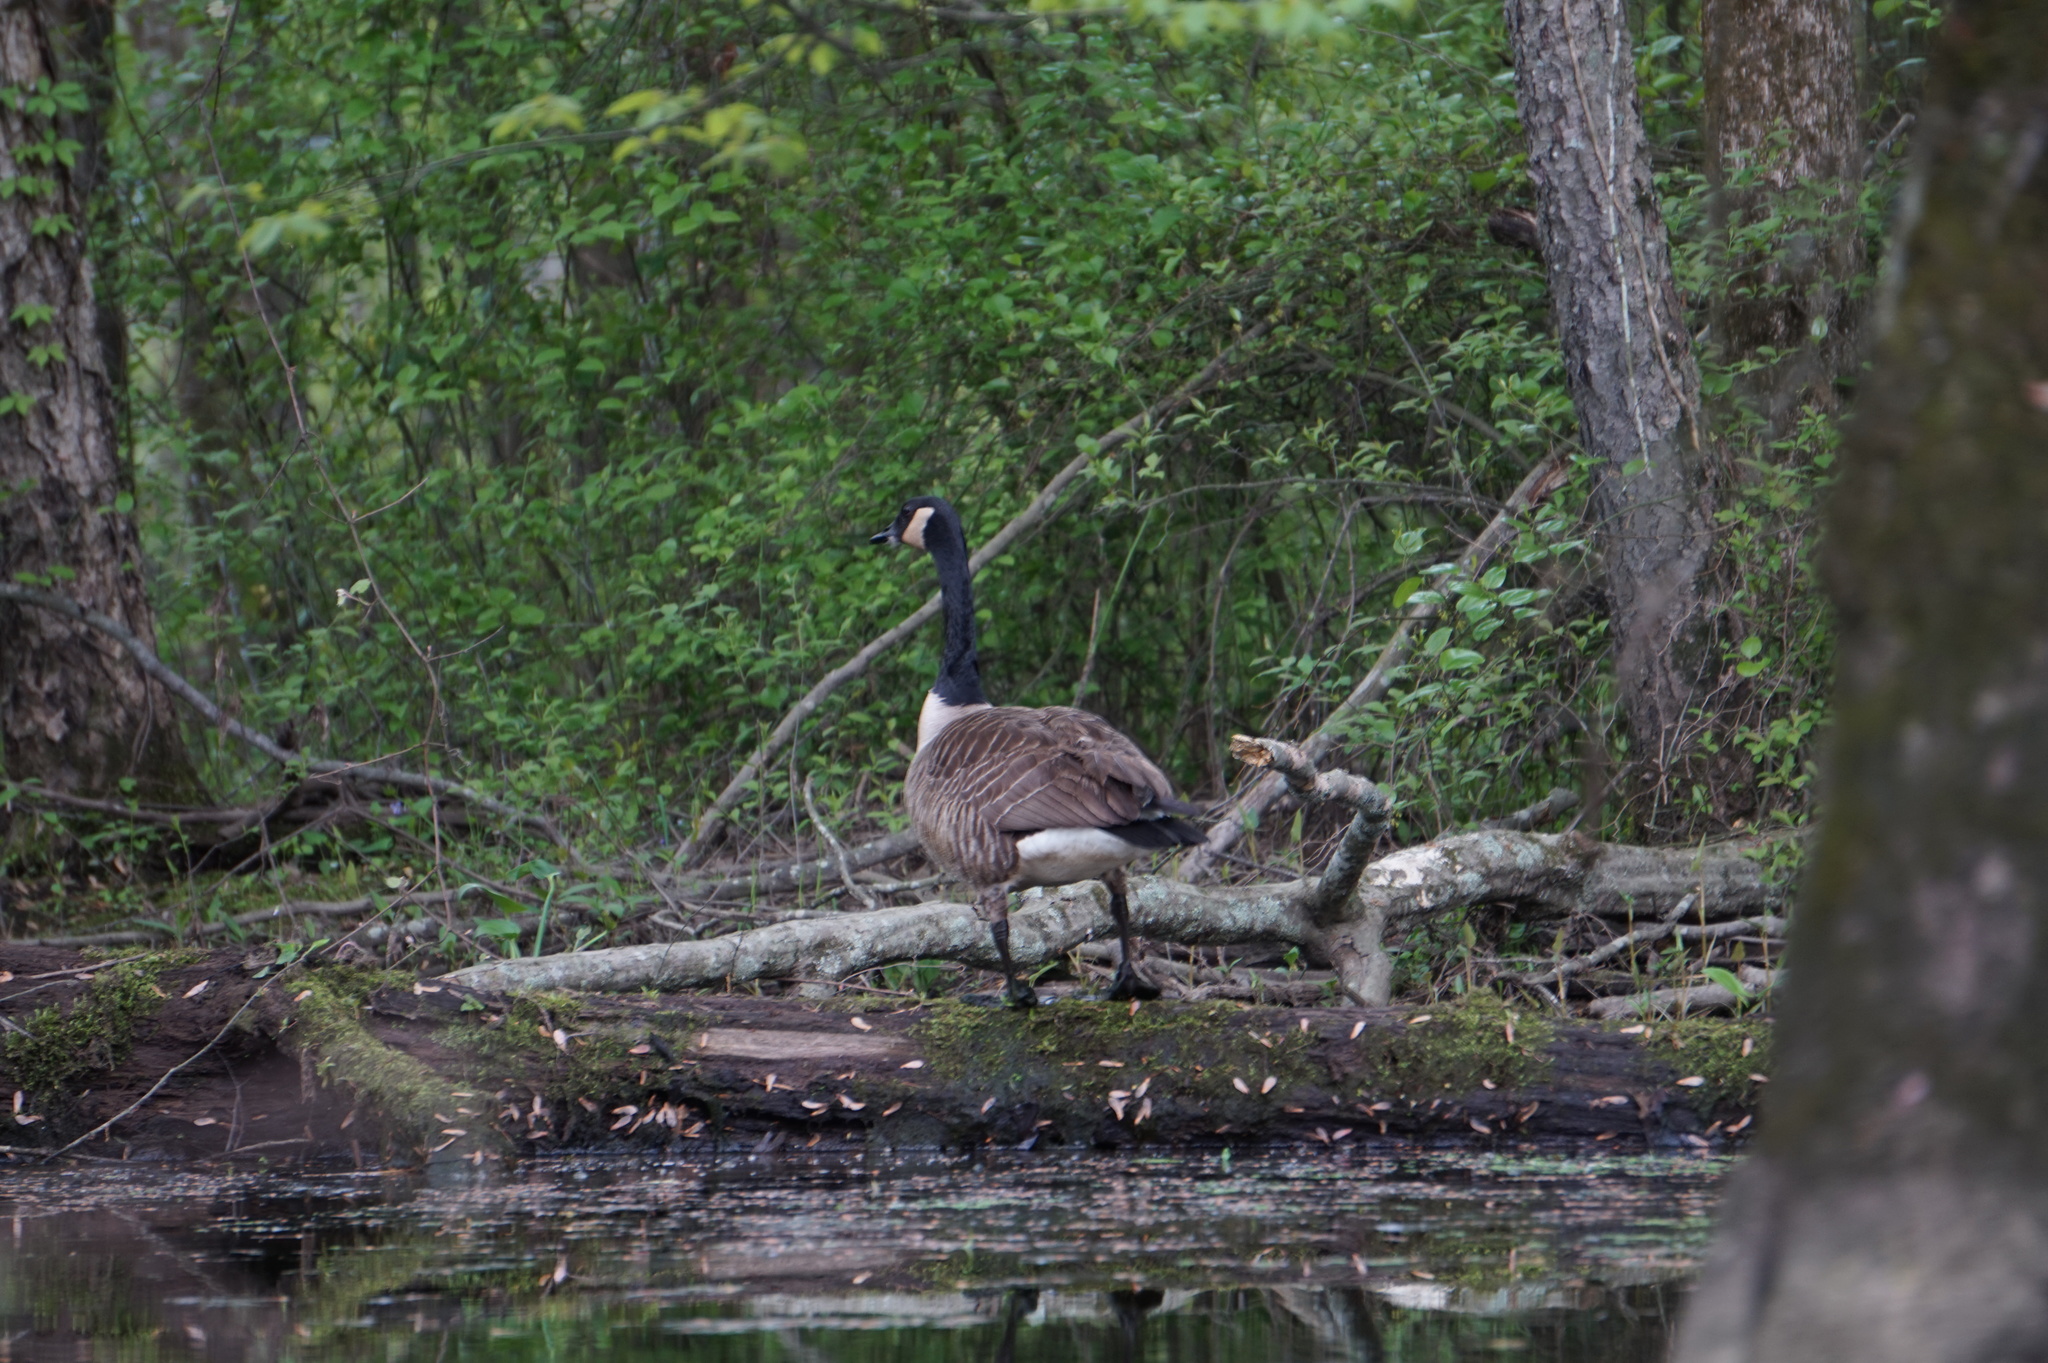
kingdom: Animalia
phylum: Chordata
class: Aves
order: Anseriformes
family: Anatidae
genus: Branta
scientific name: Branta canadensis
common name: Canada goose
